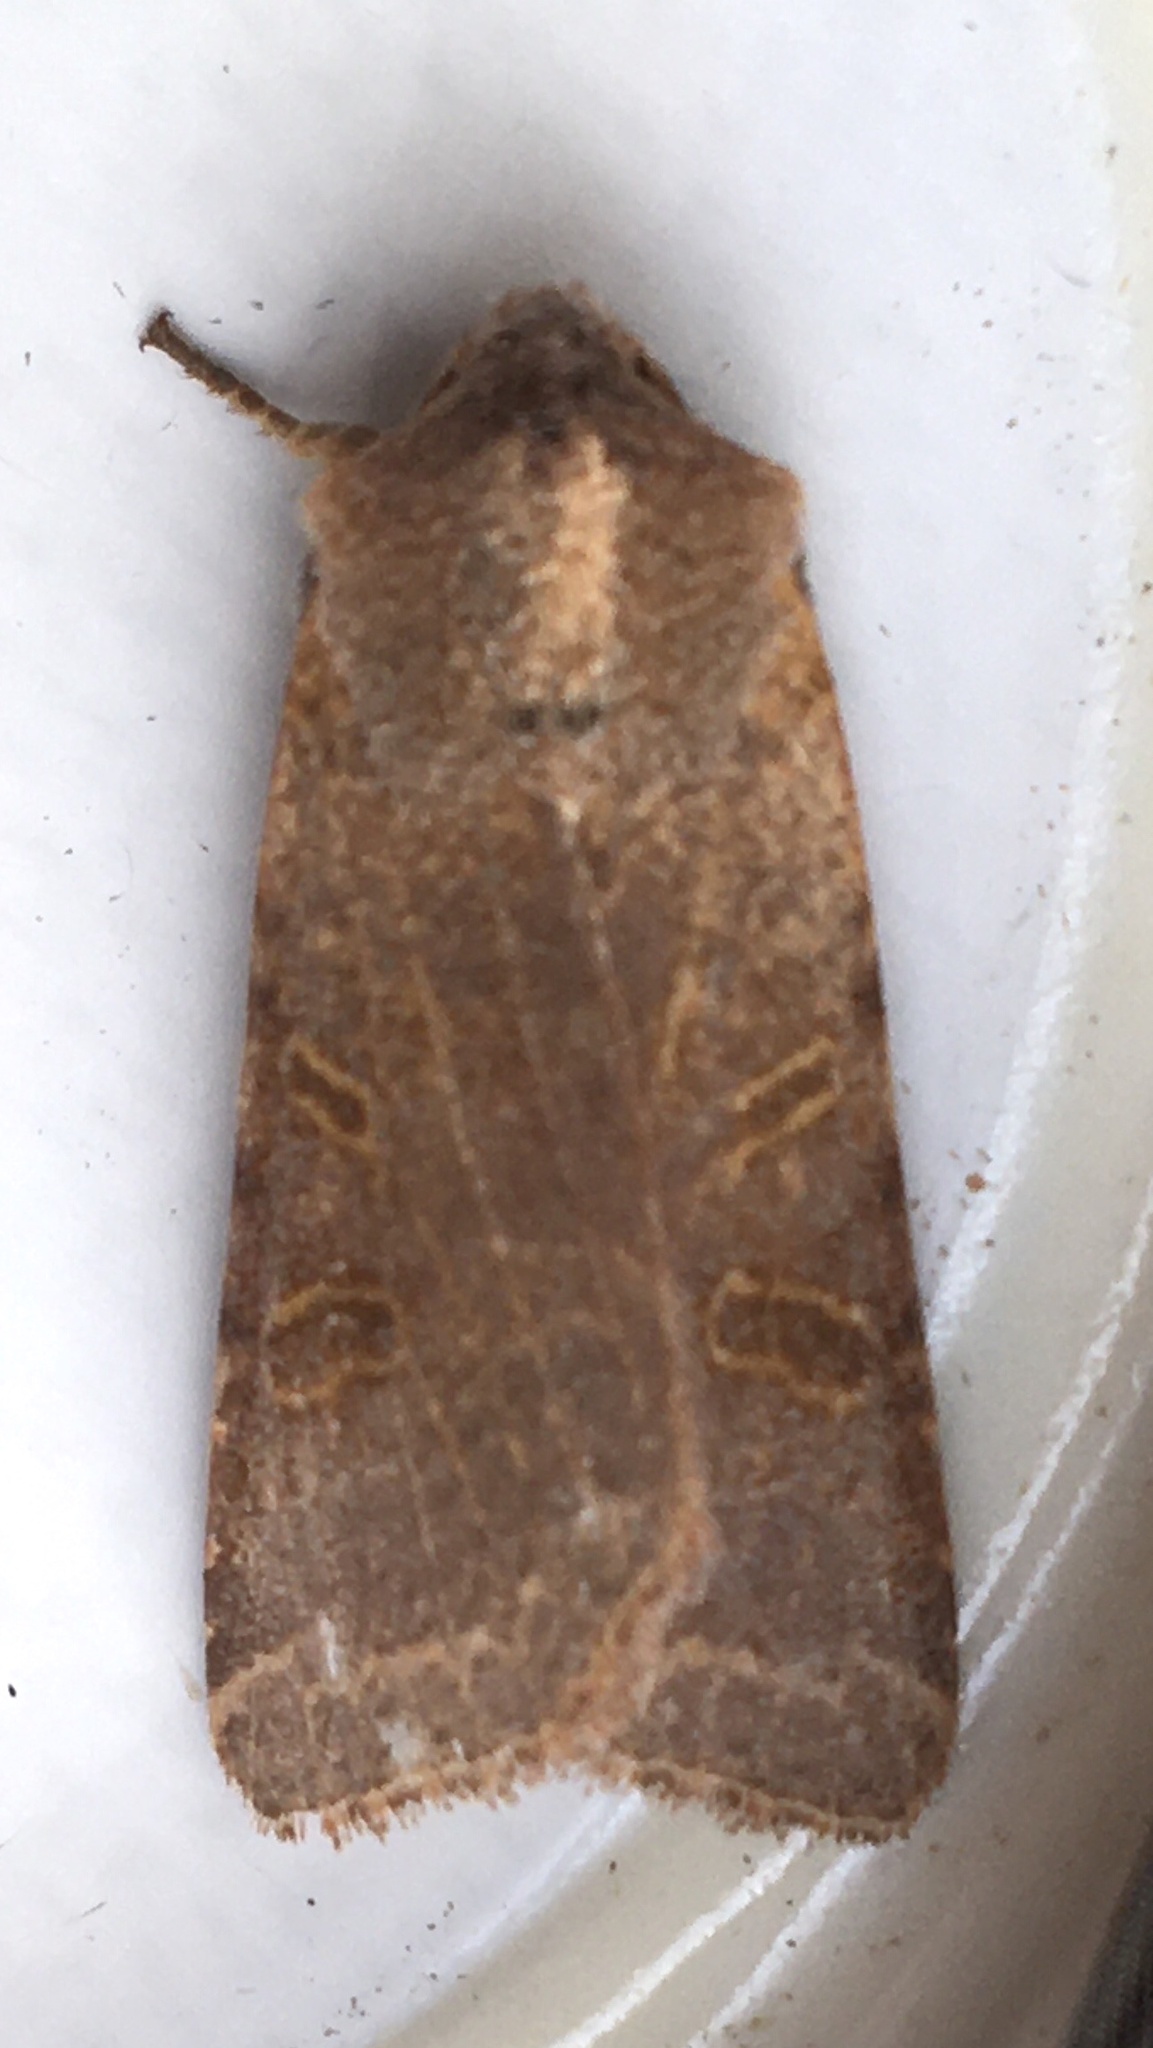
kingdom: Animalia
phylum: Arthropoda
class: Insecta
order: Lepidoptera
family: Noctuidae
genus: Agrochola
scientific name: Agrochola lychnidis
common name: Beaded chestnut
